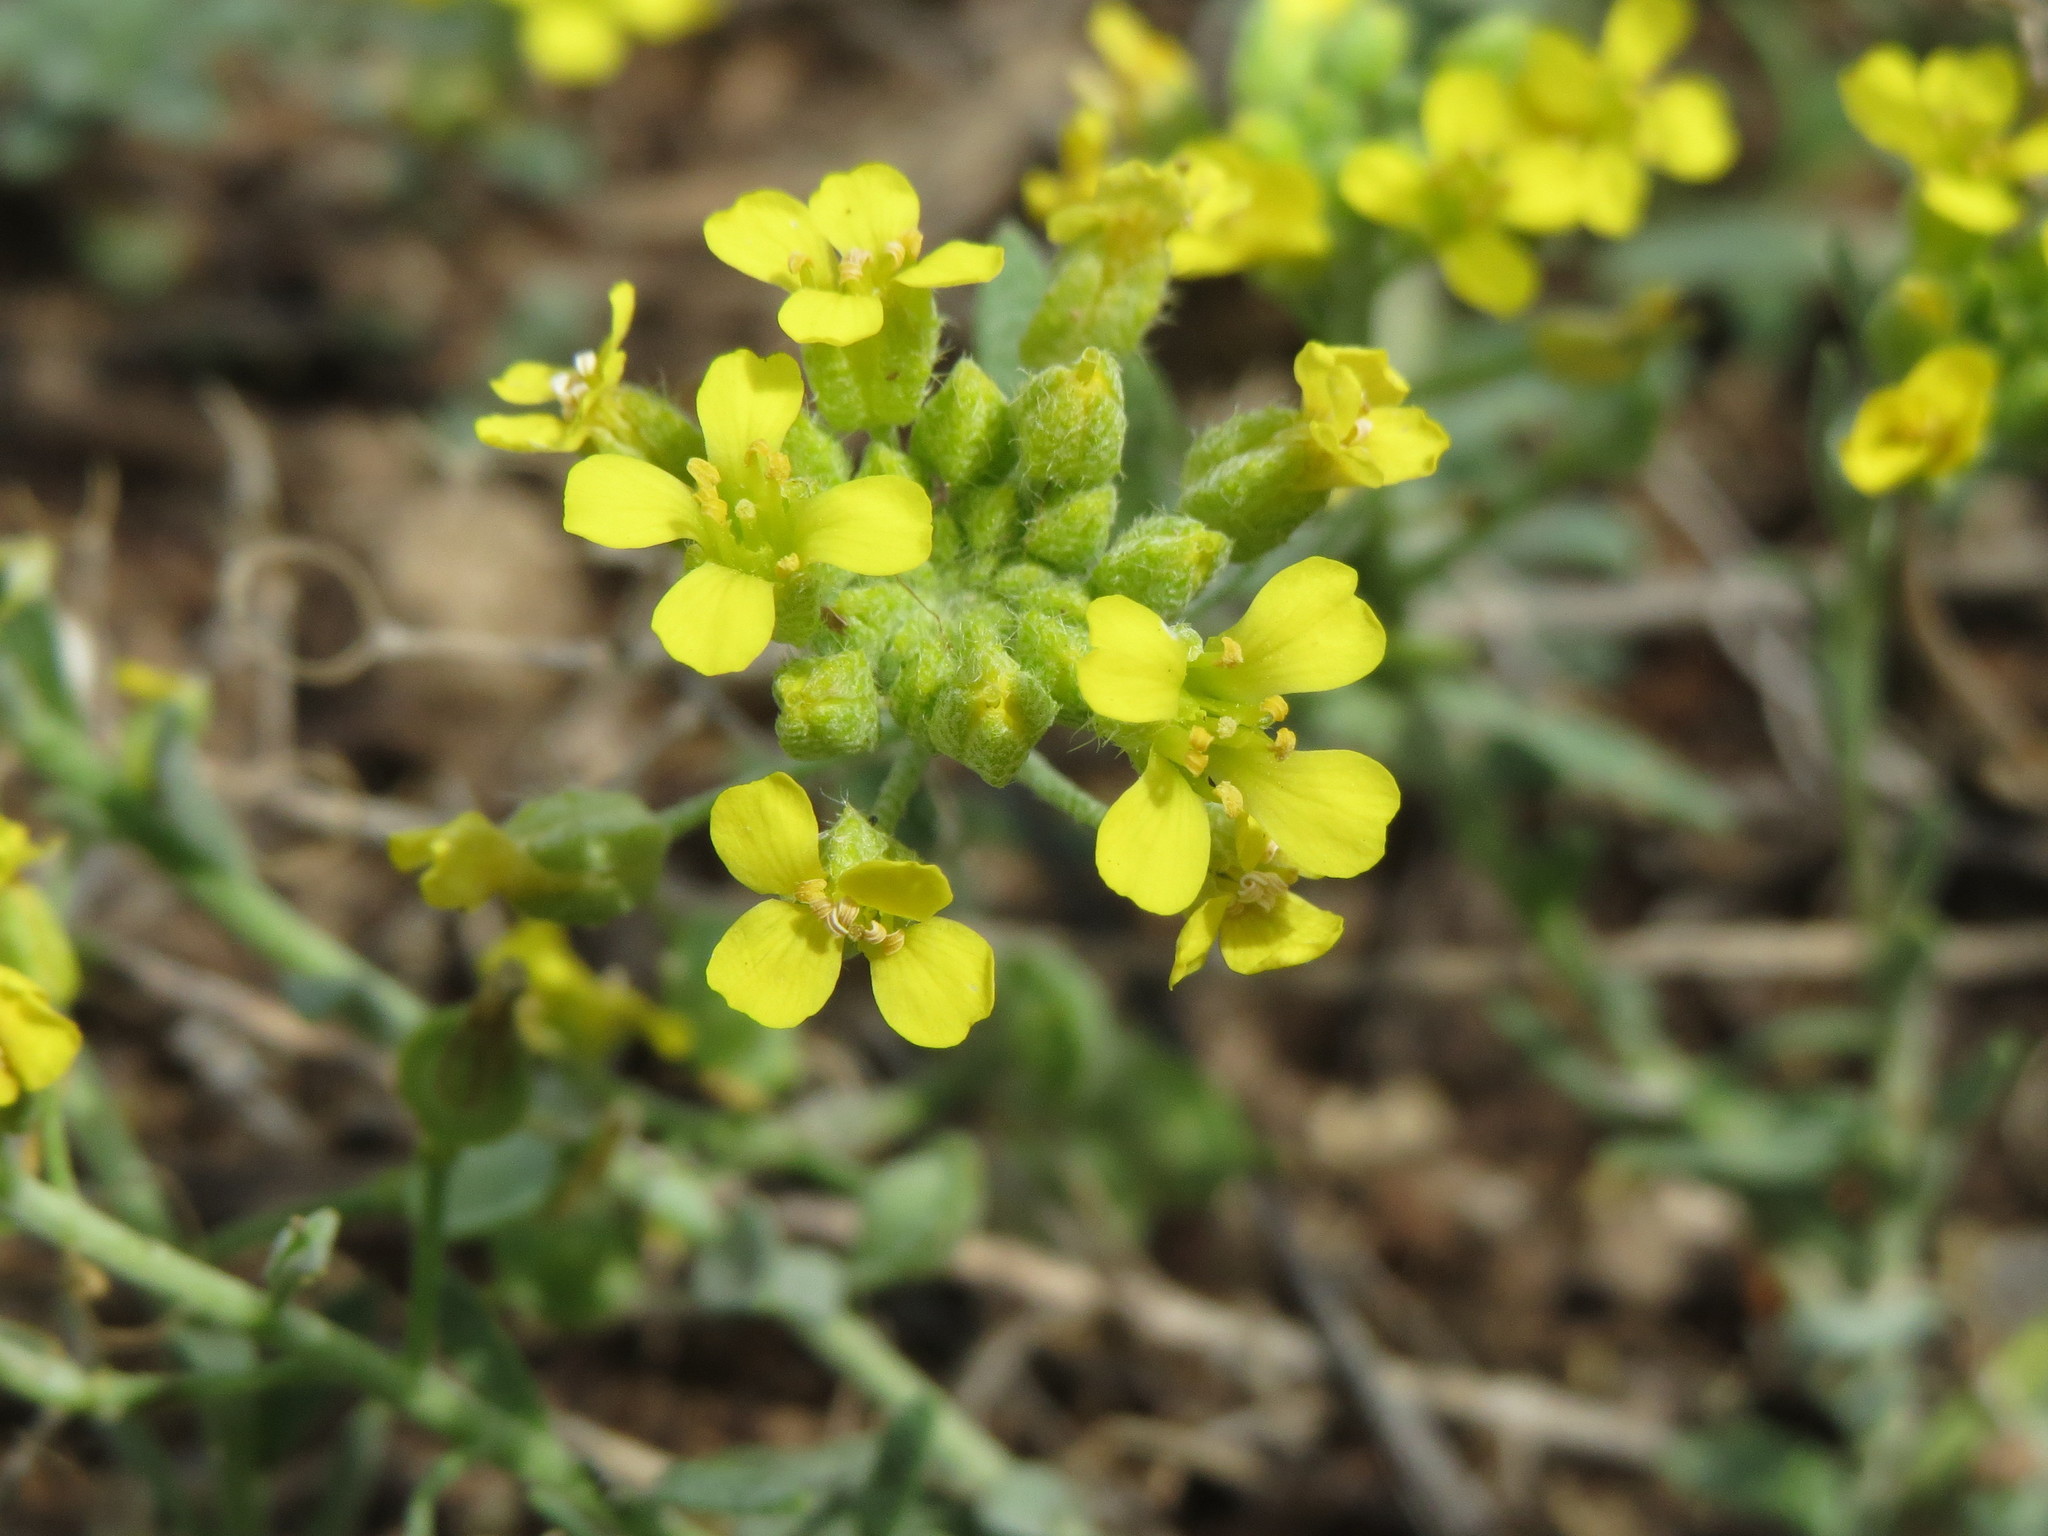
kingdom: Plantae
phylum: Tracheophyta
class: Magnoliopsida
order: Brassicales
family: Brassicaceae
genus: Alyssum
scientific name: Alyssum gmelinii
